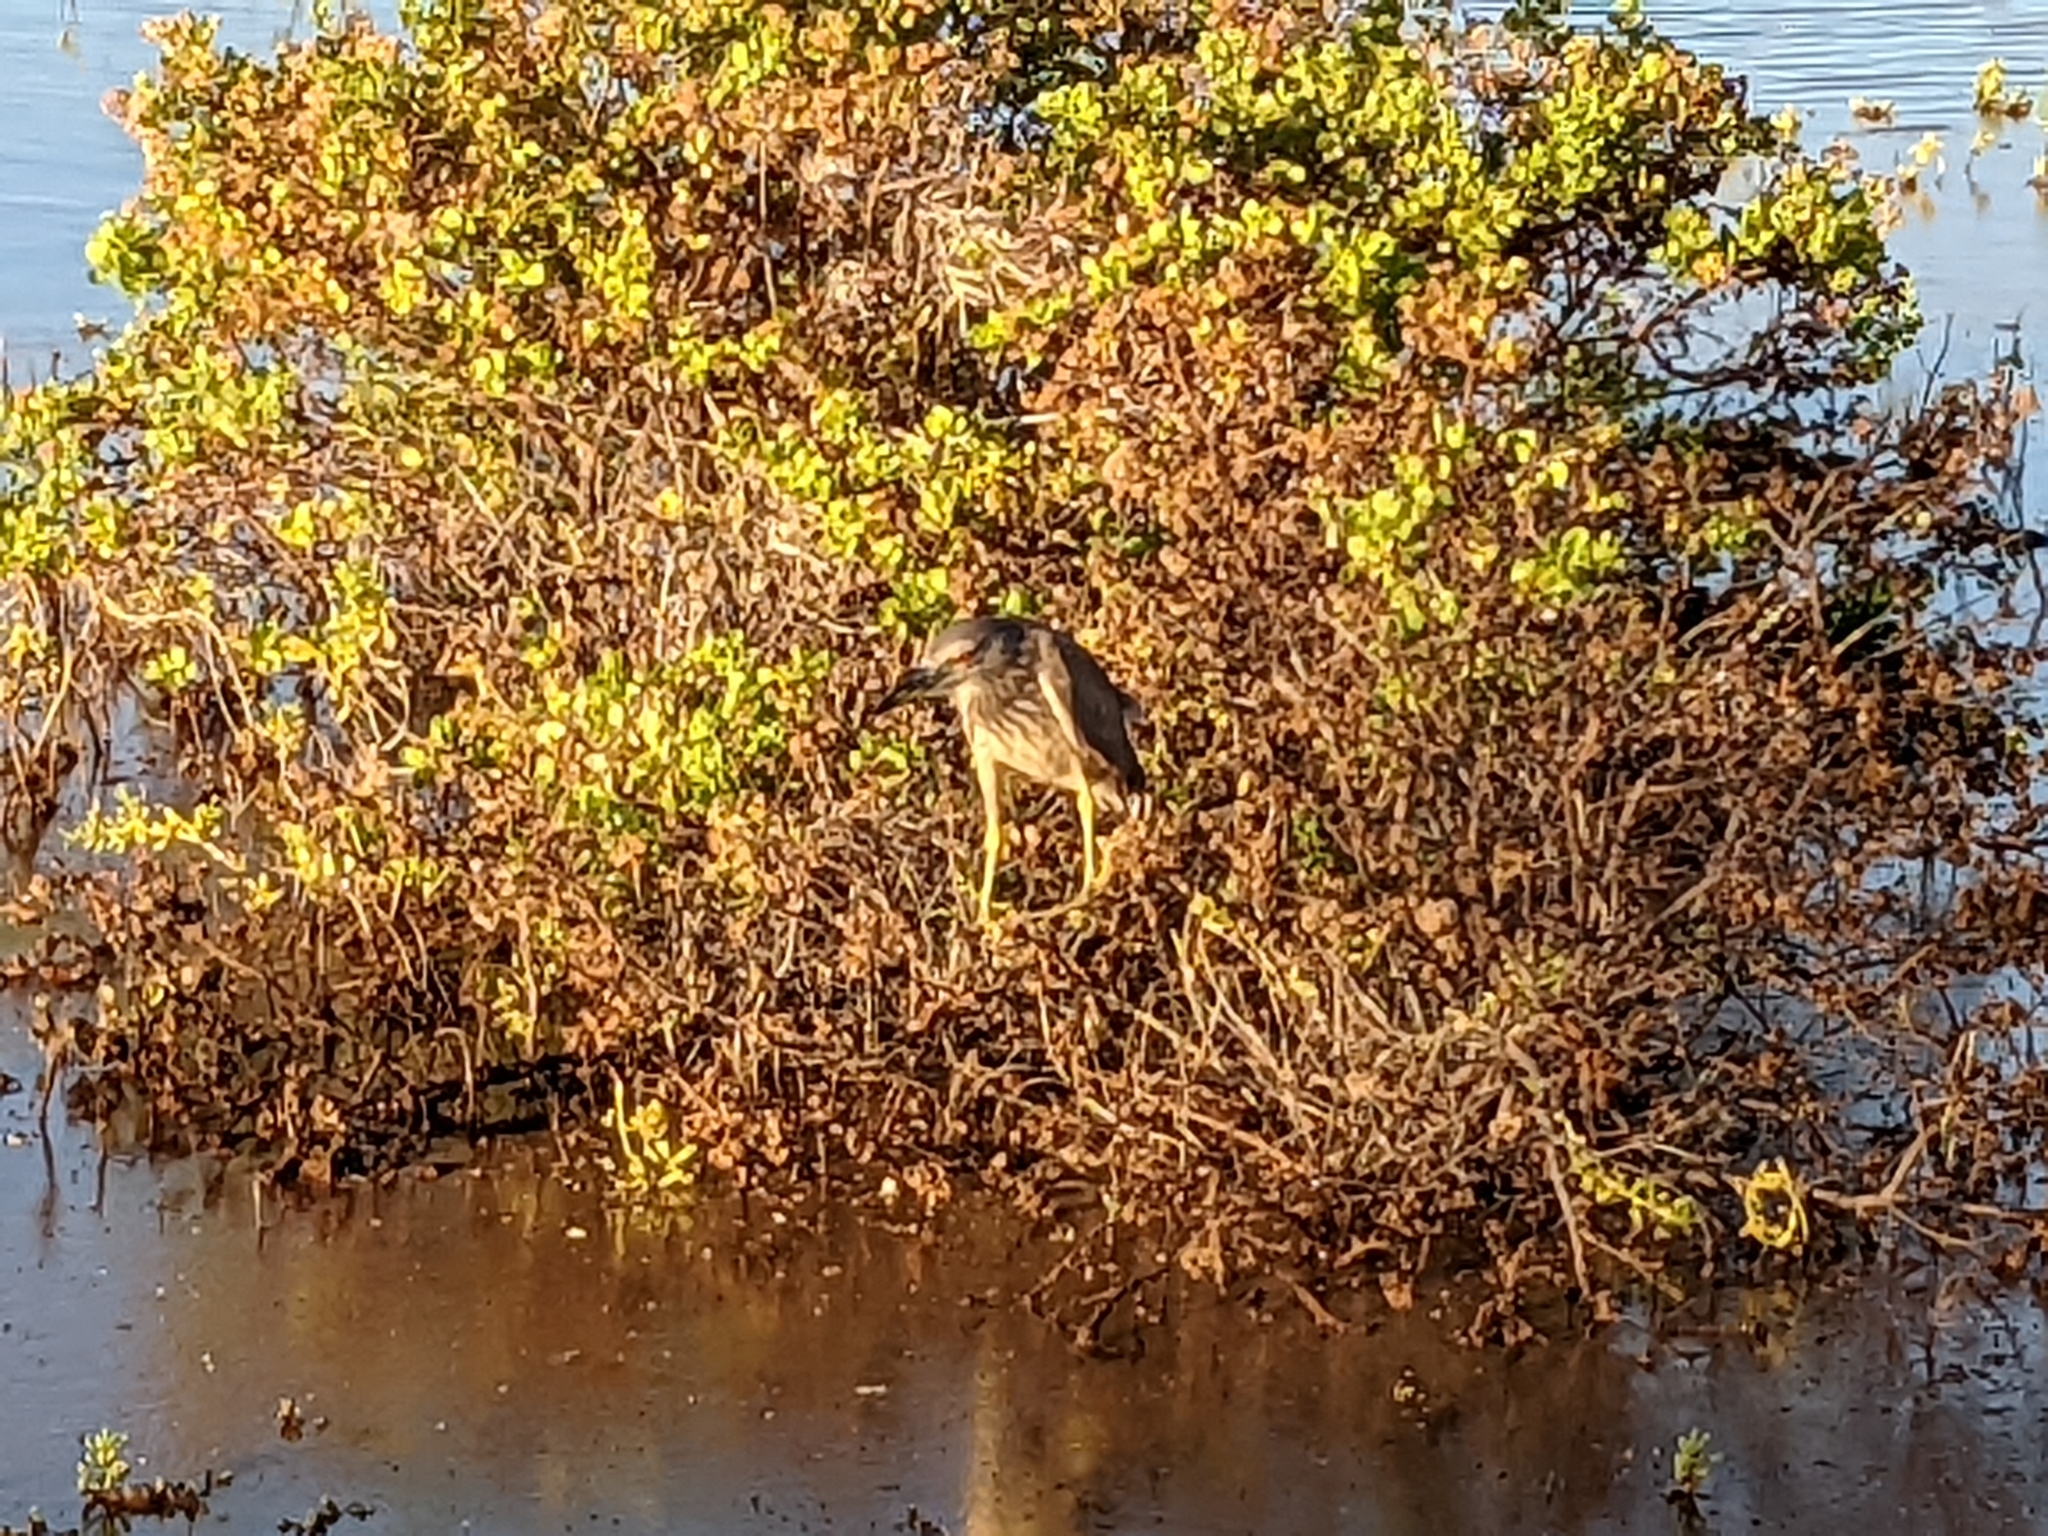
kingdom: Animalia
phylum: Chordata
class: Aves
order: Pelecaniformes
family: Ardeidae
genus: Nycticorax
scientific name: Nycticorax nycticorax
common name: Black-crowned night heron
